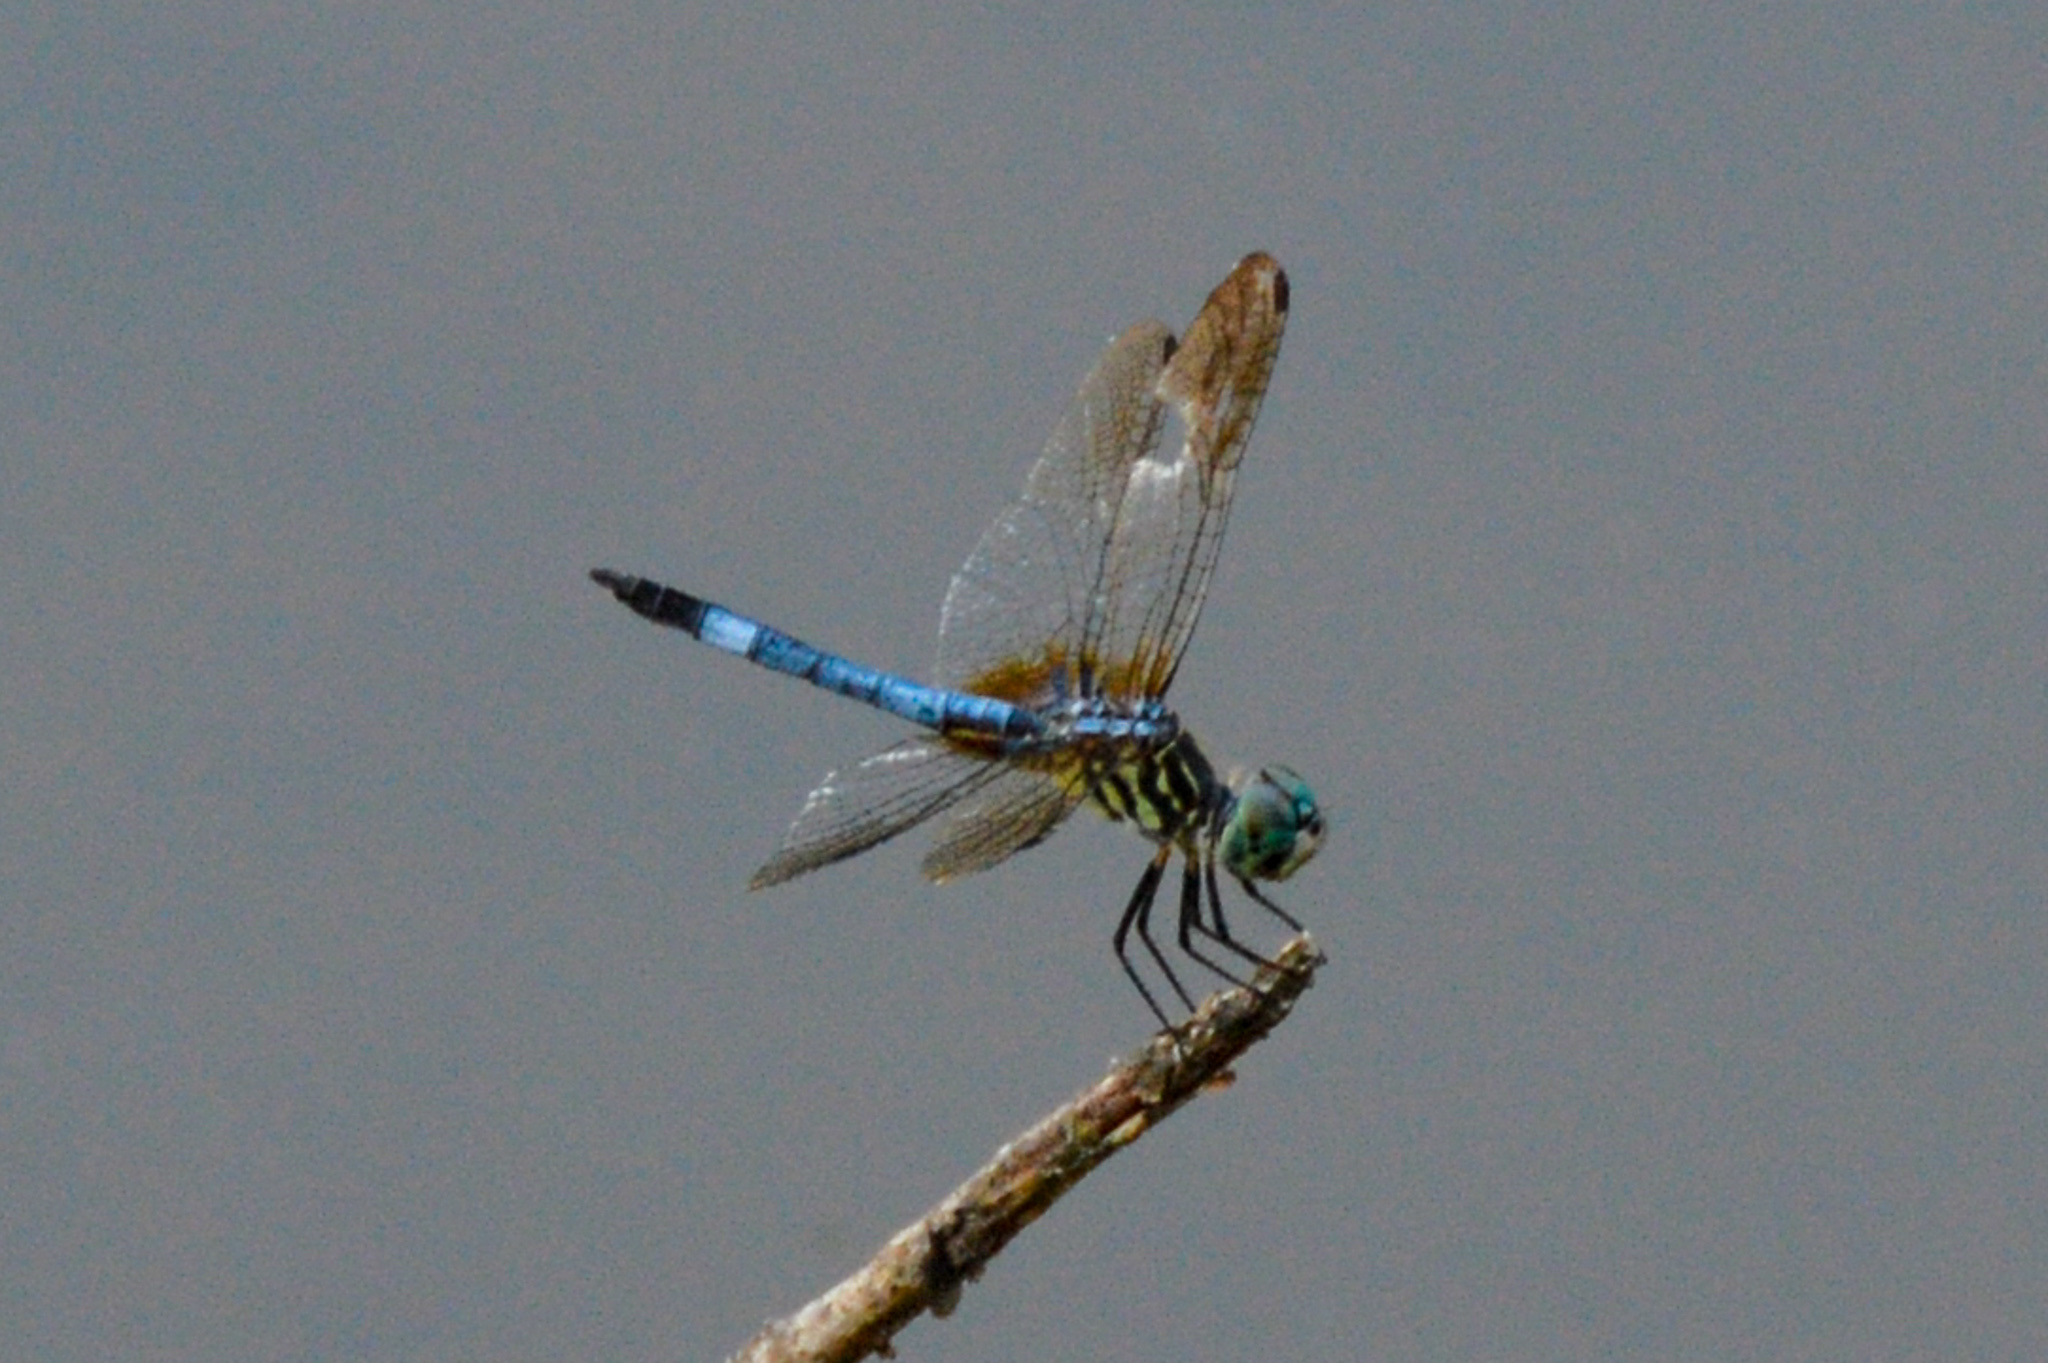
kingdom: Animalia
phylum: Arthropoda
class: Insecta
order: Odonata
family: Libellulidae
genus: Pachydiplax
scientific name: Pachydiplax longipennis
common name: Blue dasher
